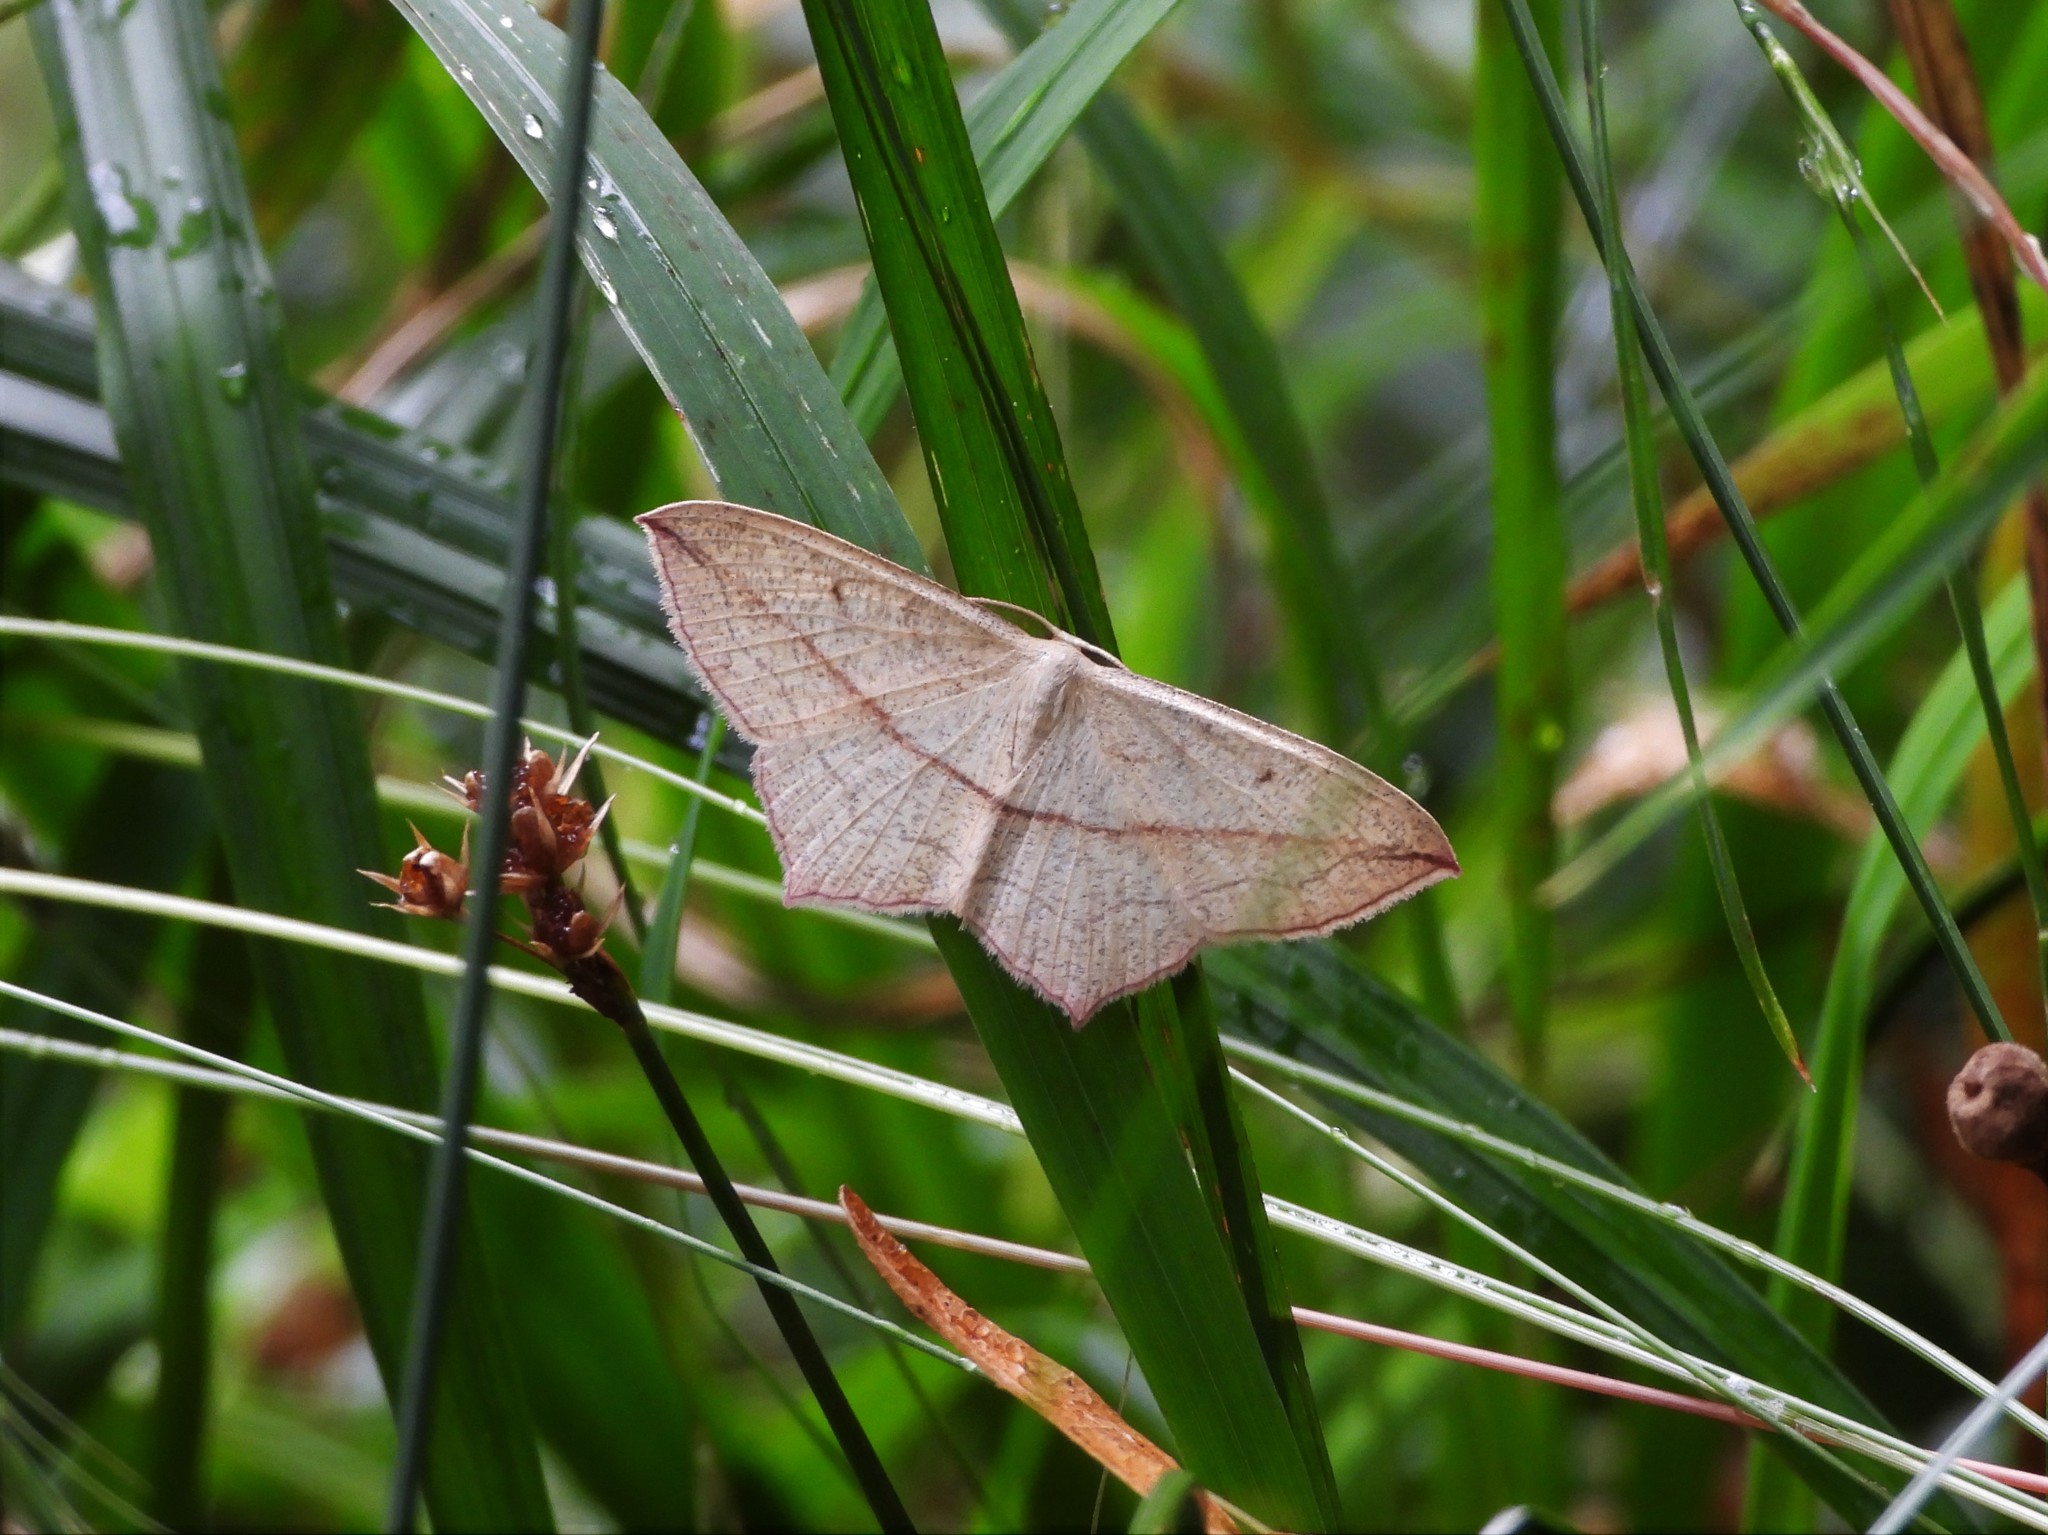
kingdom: Animalia
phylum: Arthropoda
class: Insecta
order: Lepidoptera
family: Geometridae
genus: Timandra
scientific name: Timandra comae
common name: Blood-vein
